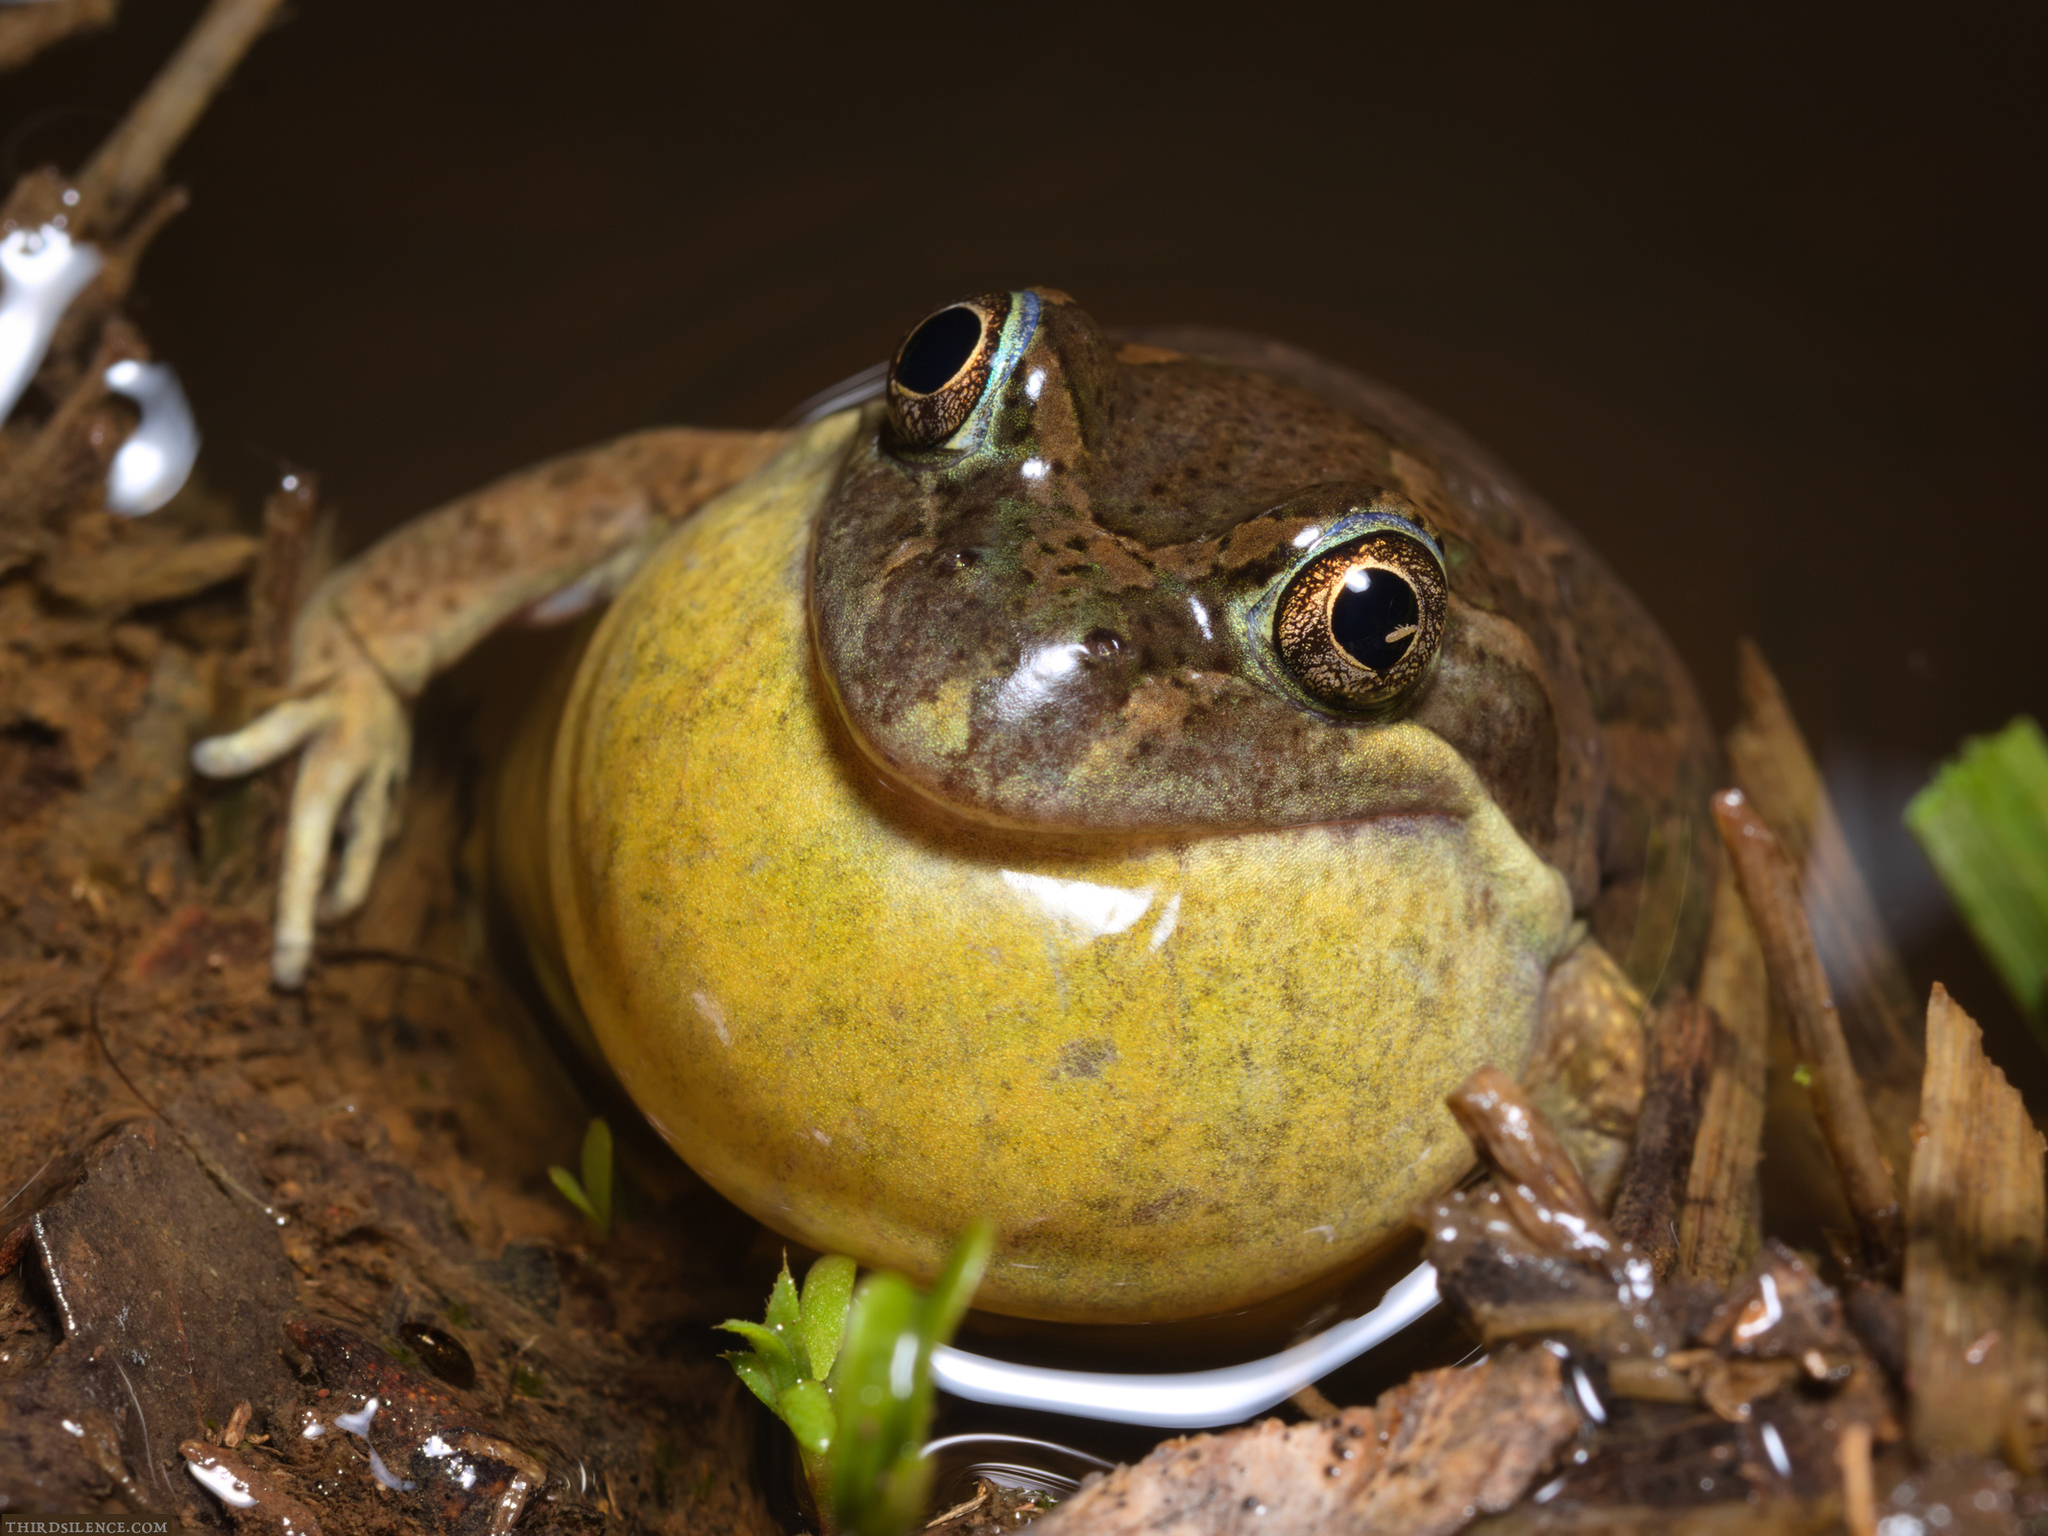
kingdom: Animalia
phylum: Chordata
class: Amphibia
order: Anura
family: Limnodynastidae
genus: Limnodynastes
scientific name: Limnodynastes tasmaniensis
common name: Spotted marsh frog
